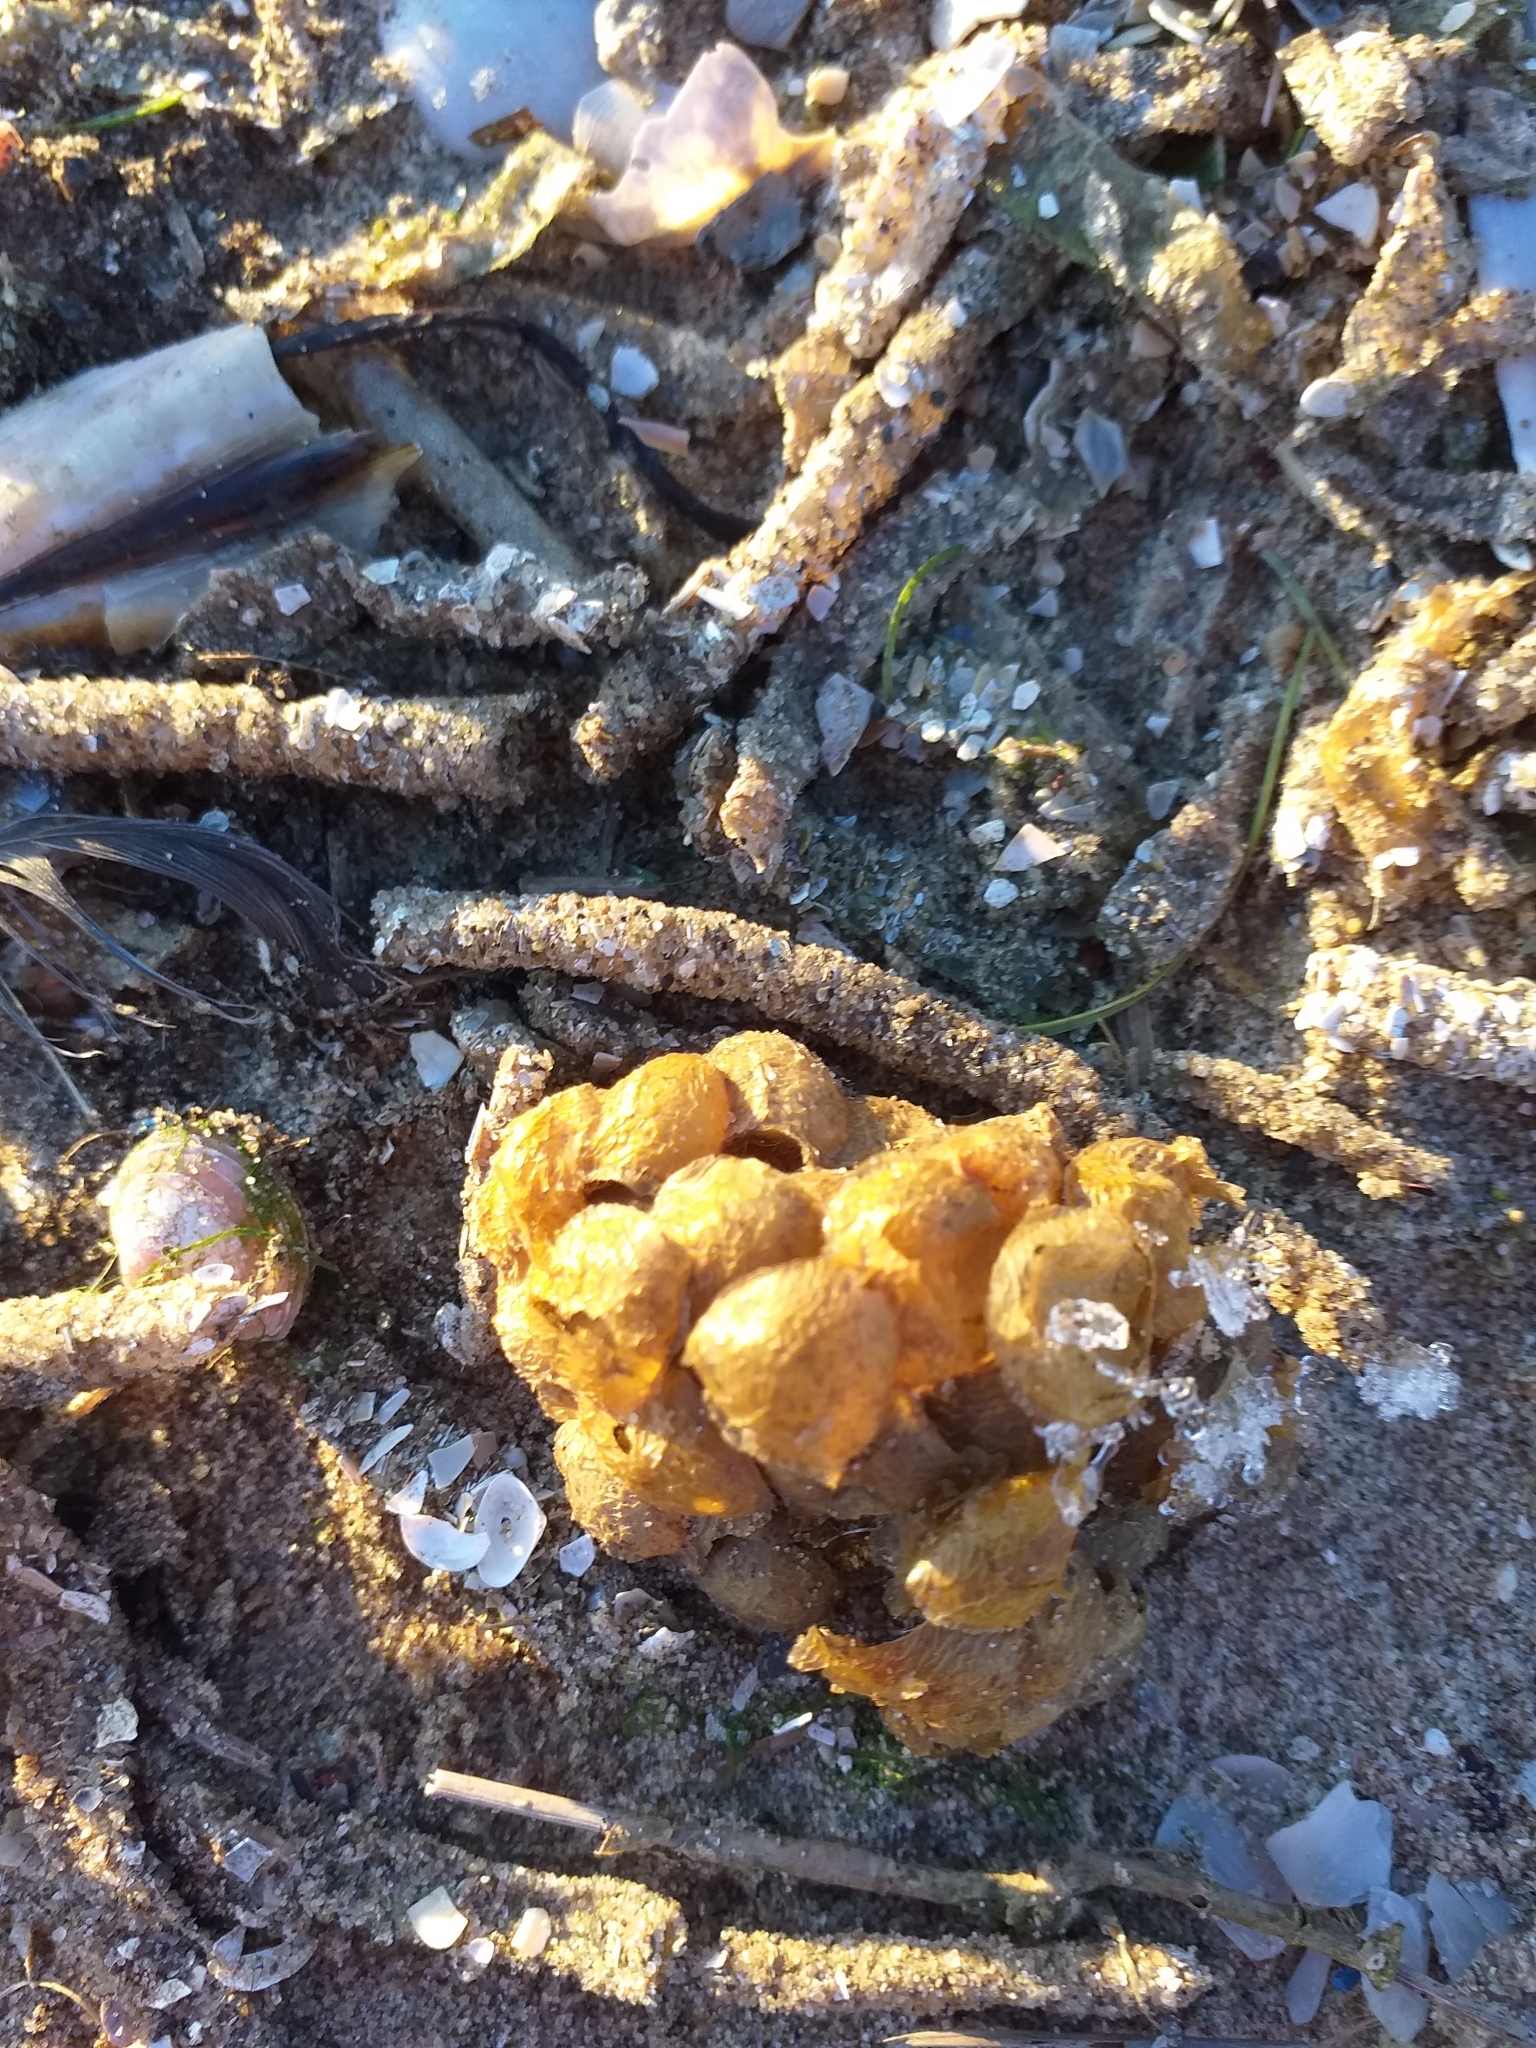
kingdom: Animalia
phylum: Mollusca
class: Gastropoda
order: Neogastropoda
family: Buccinidae
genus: Buccinum
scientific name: Buccinum undatum
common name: Common whelk
